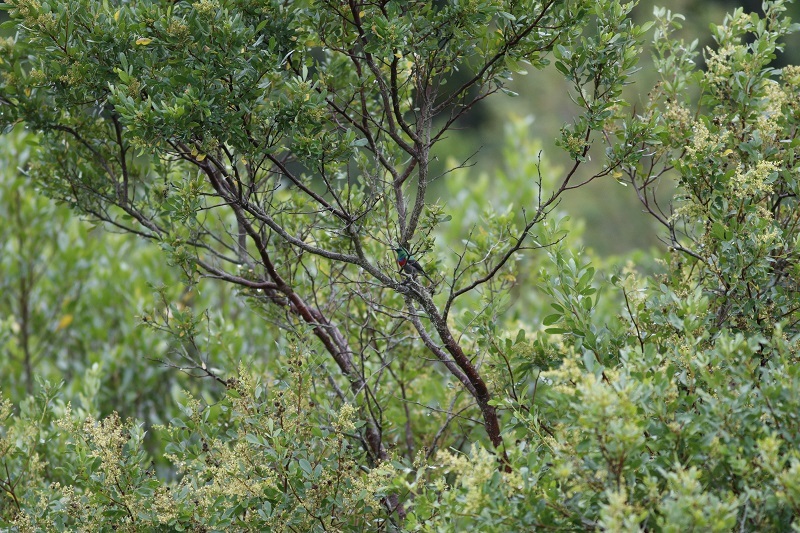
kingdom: Animalia
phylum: Chordata
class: Aves
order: Passeriformes
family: Nectariniidae
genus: Cinnyris
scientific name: Cinnyris chalybeus
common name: Southern double-collared sunbird
